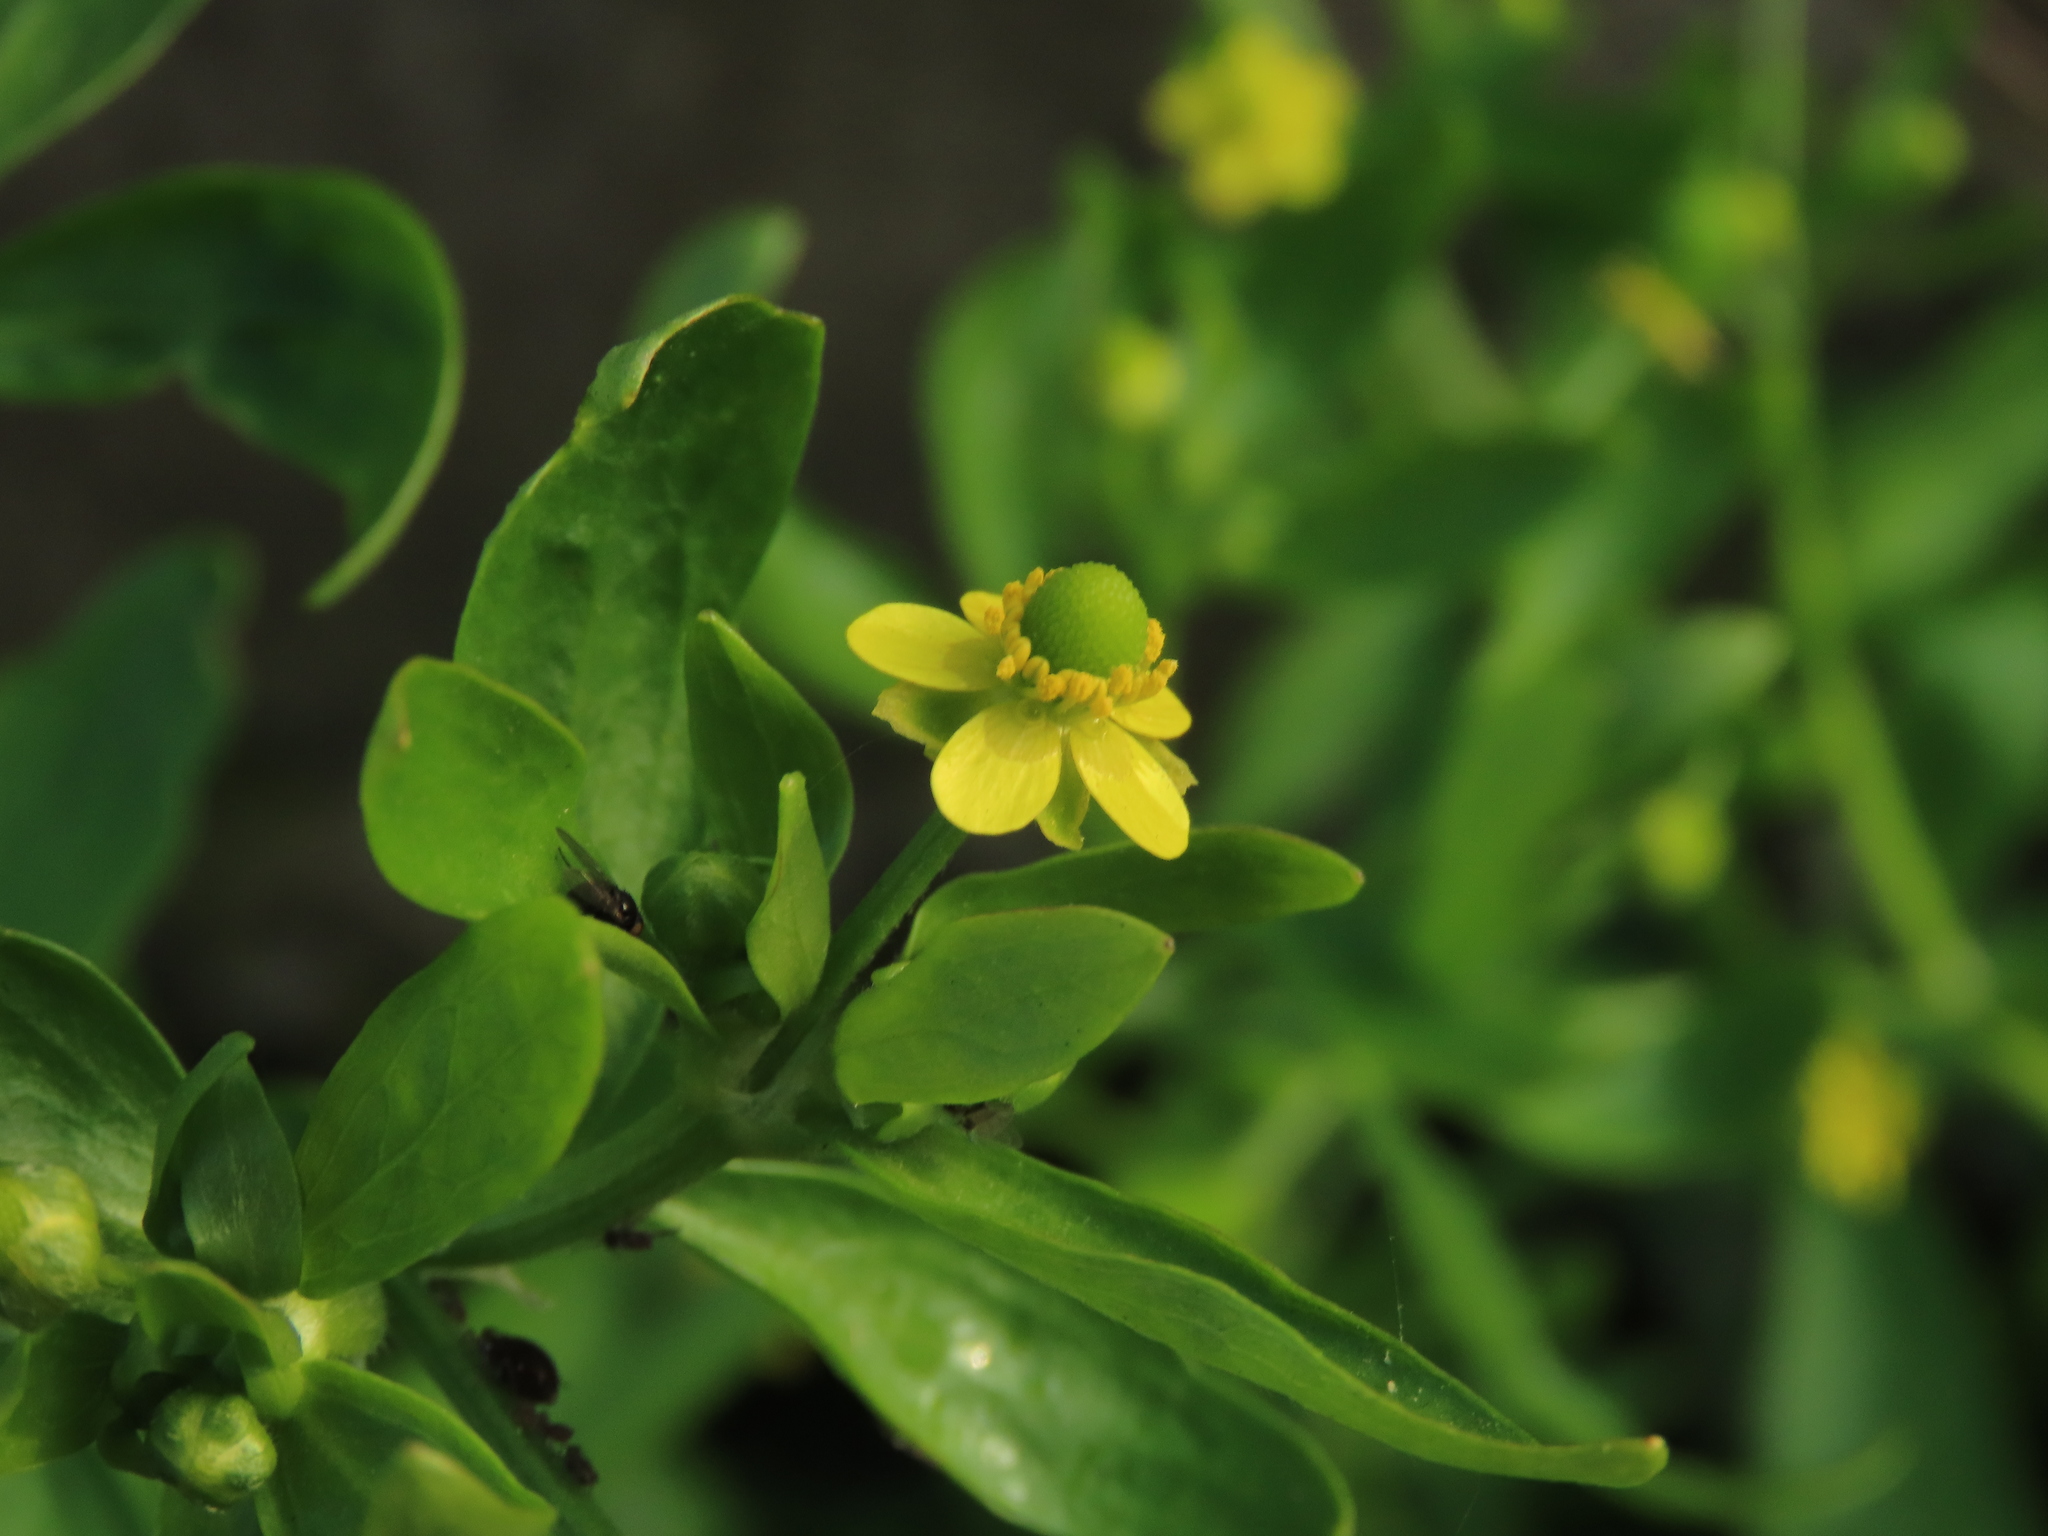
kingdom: Plantae
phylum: Tracheophyta
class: Magnoliopsida
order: Ranunculales
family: Ranunculaceae
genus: Ranunculus
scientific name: Ranunculus sceleratus
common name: Celery-leaved buttercup
